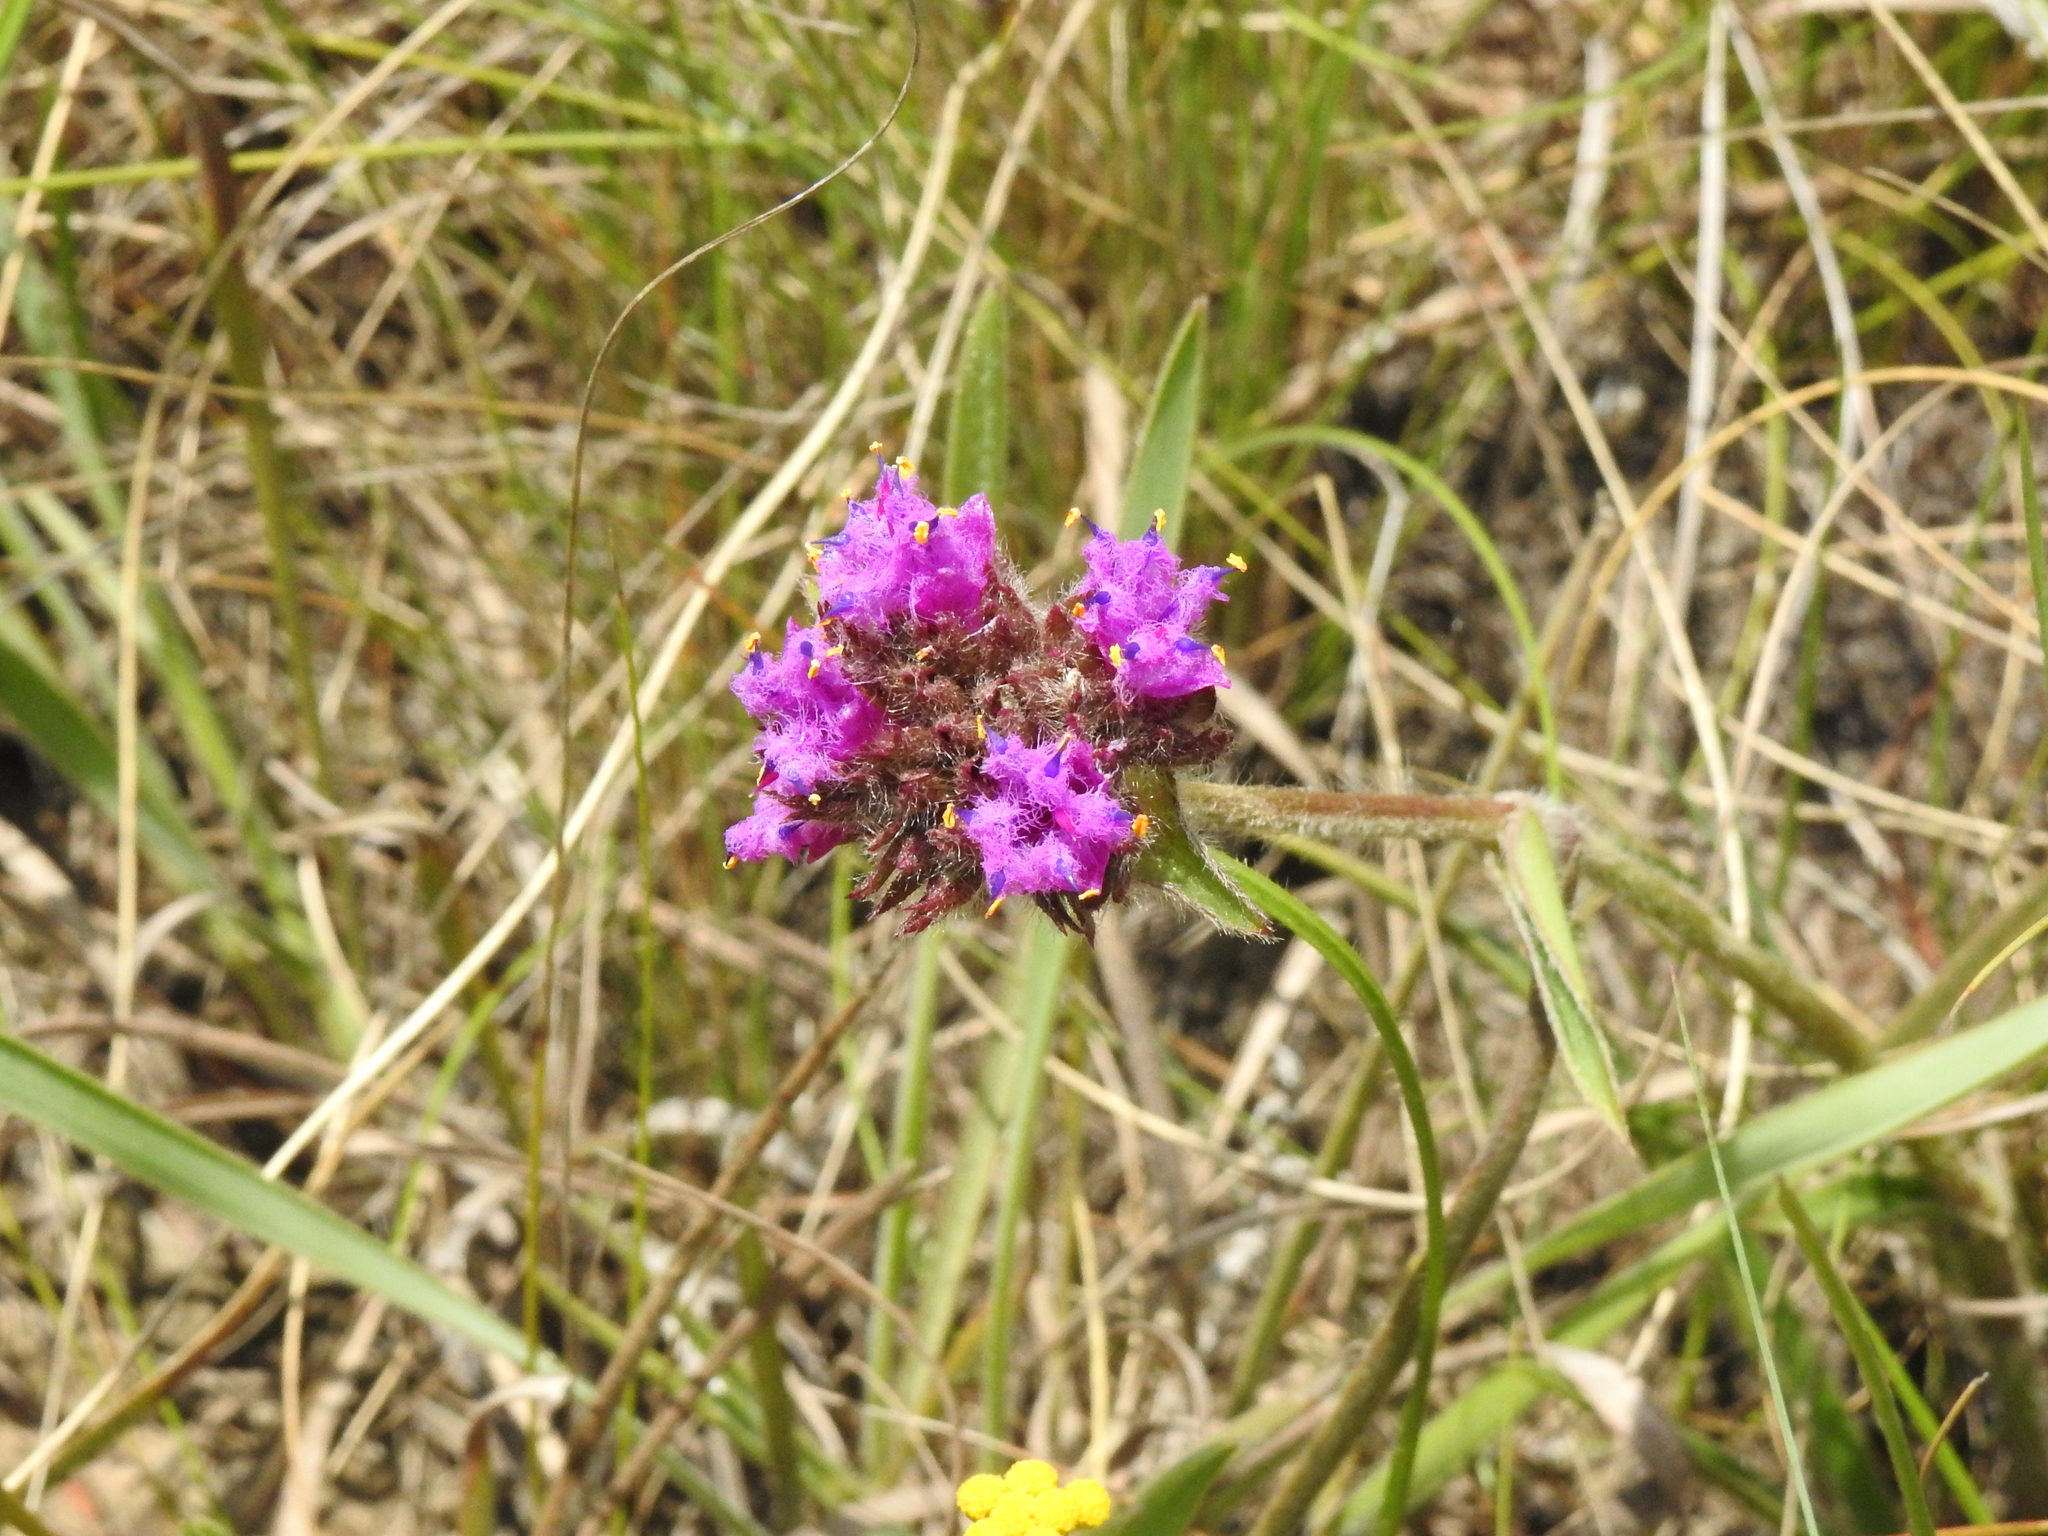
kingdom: Plantae
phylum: Tracheophyta
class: Liliopsida
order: Commelinales
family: Commelinaceae
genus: Cyanotis
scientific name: Cyanotis speciosa
